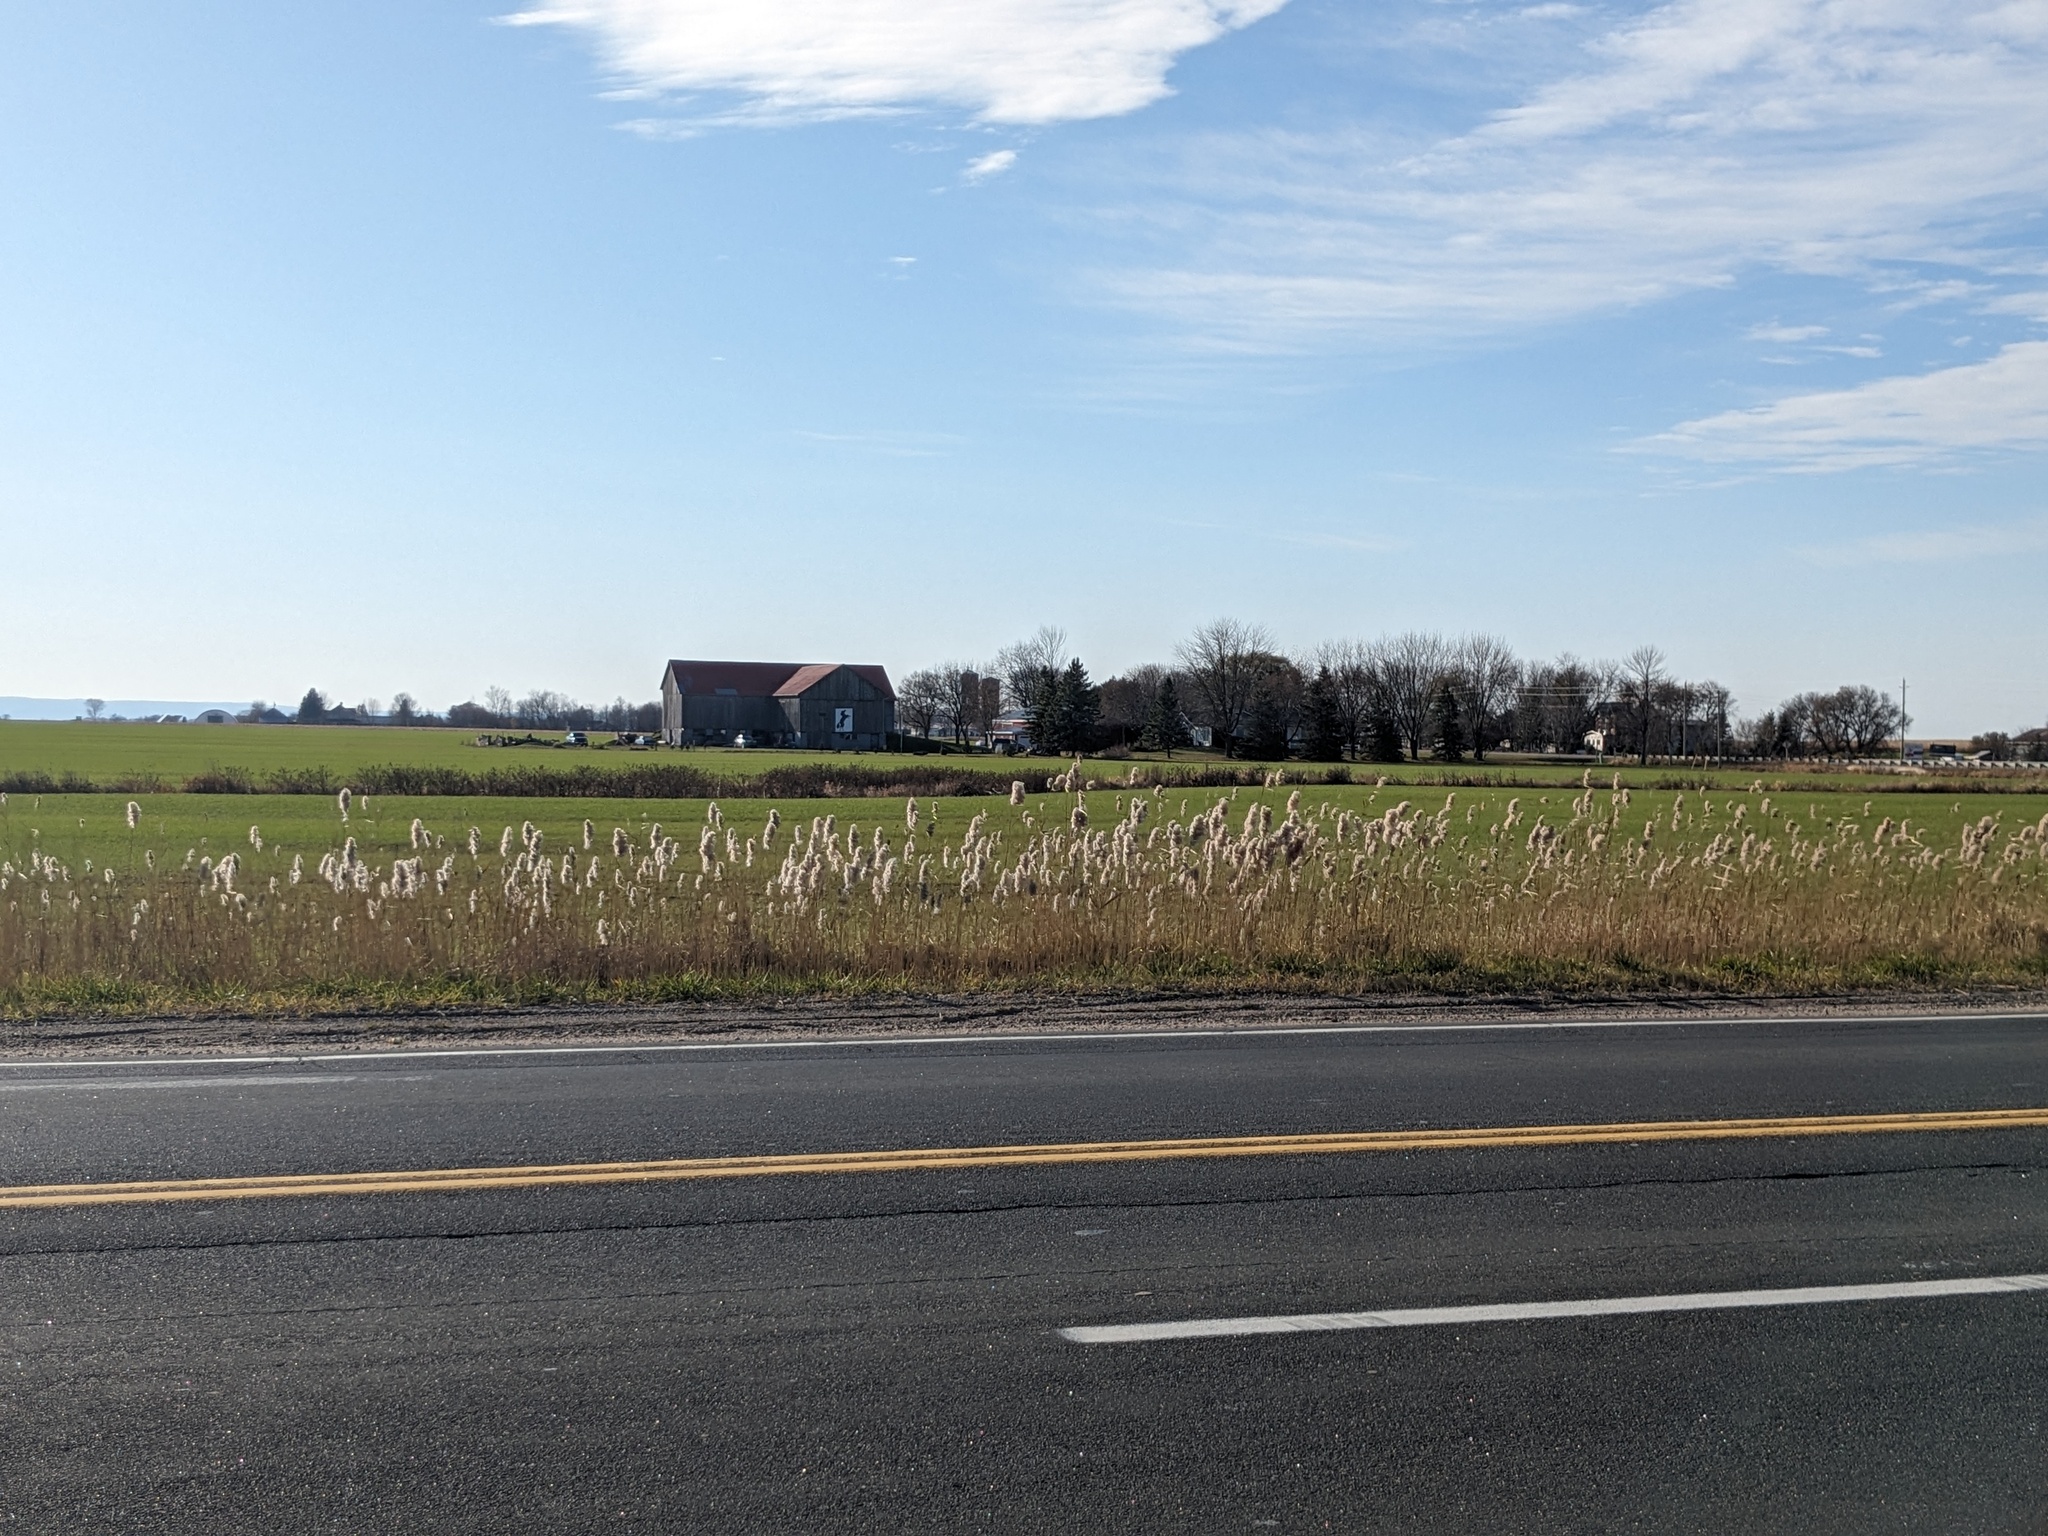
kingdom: Plantae
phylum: Tracheophyta
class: Liliopsida
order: Poales
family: Poaceae
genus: Phragmites
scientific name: Phragmites australis
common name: Common reed
